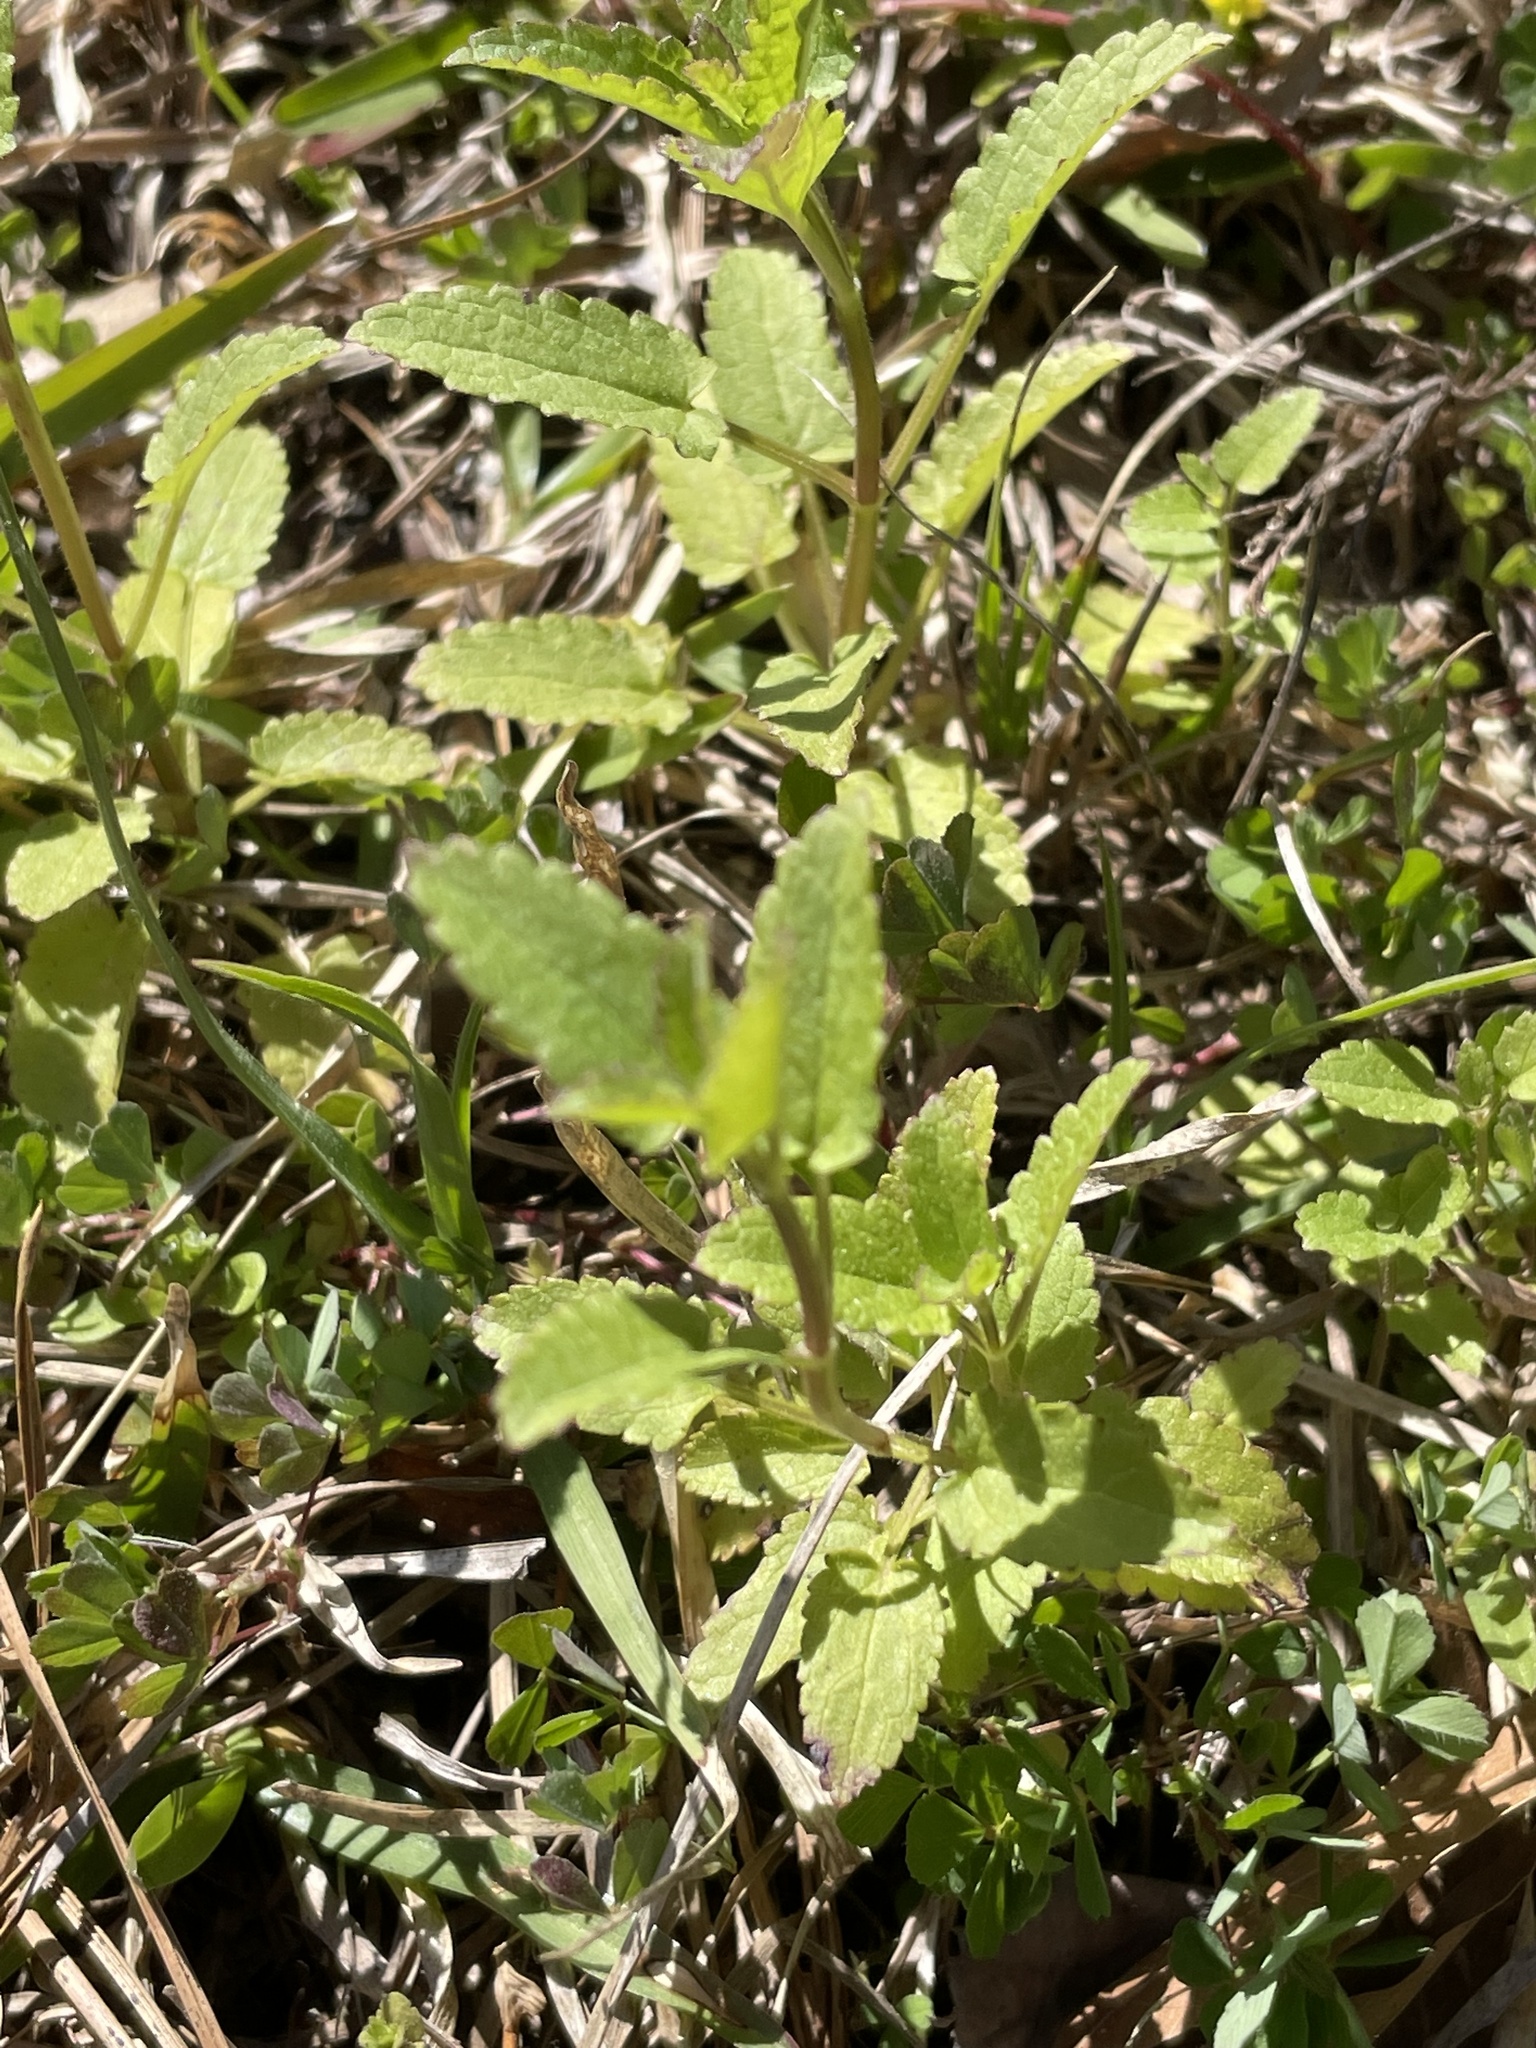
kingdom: Plantae
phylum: Tracheophyta
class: Magnoliopsida
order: Lamiales
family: Lamiaceae
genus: Stachys
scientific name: Stachys floridana
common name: Florida betony
